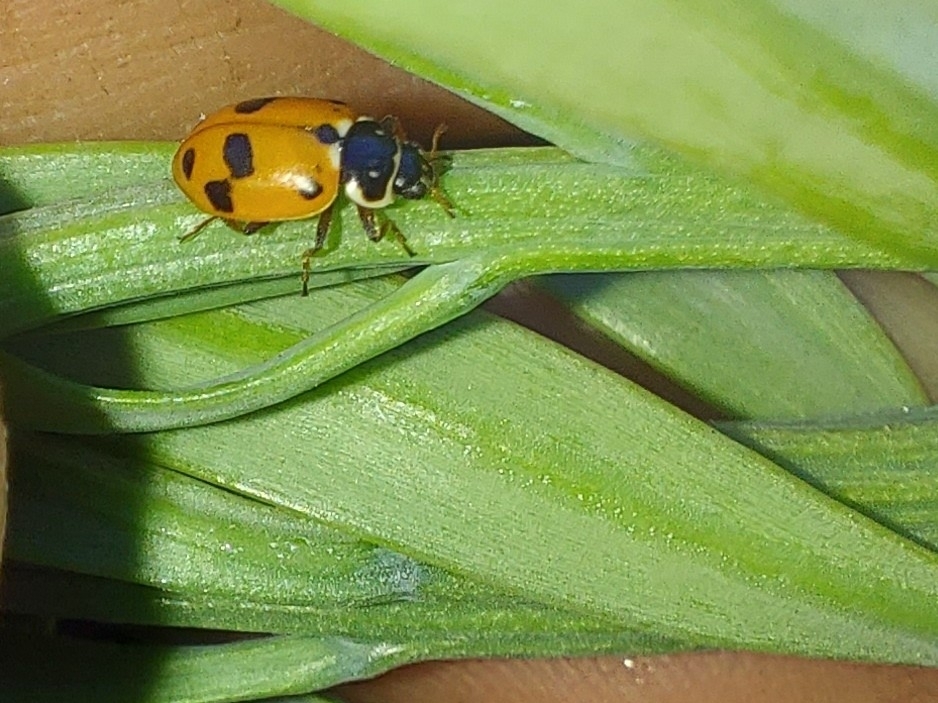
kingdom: Animalia
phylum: Arthropoda
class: Insecta
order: Coleoptera
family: Coccinellidae
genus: Hippodamia
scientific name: Hippodamia variegata
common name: Ladybird beetle
